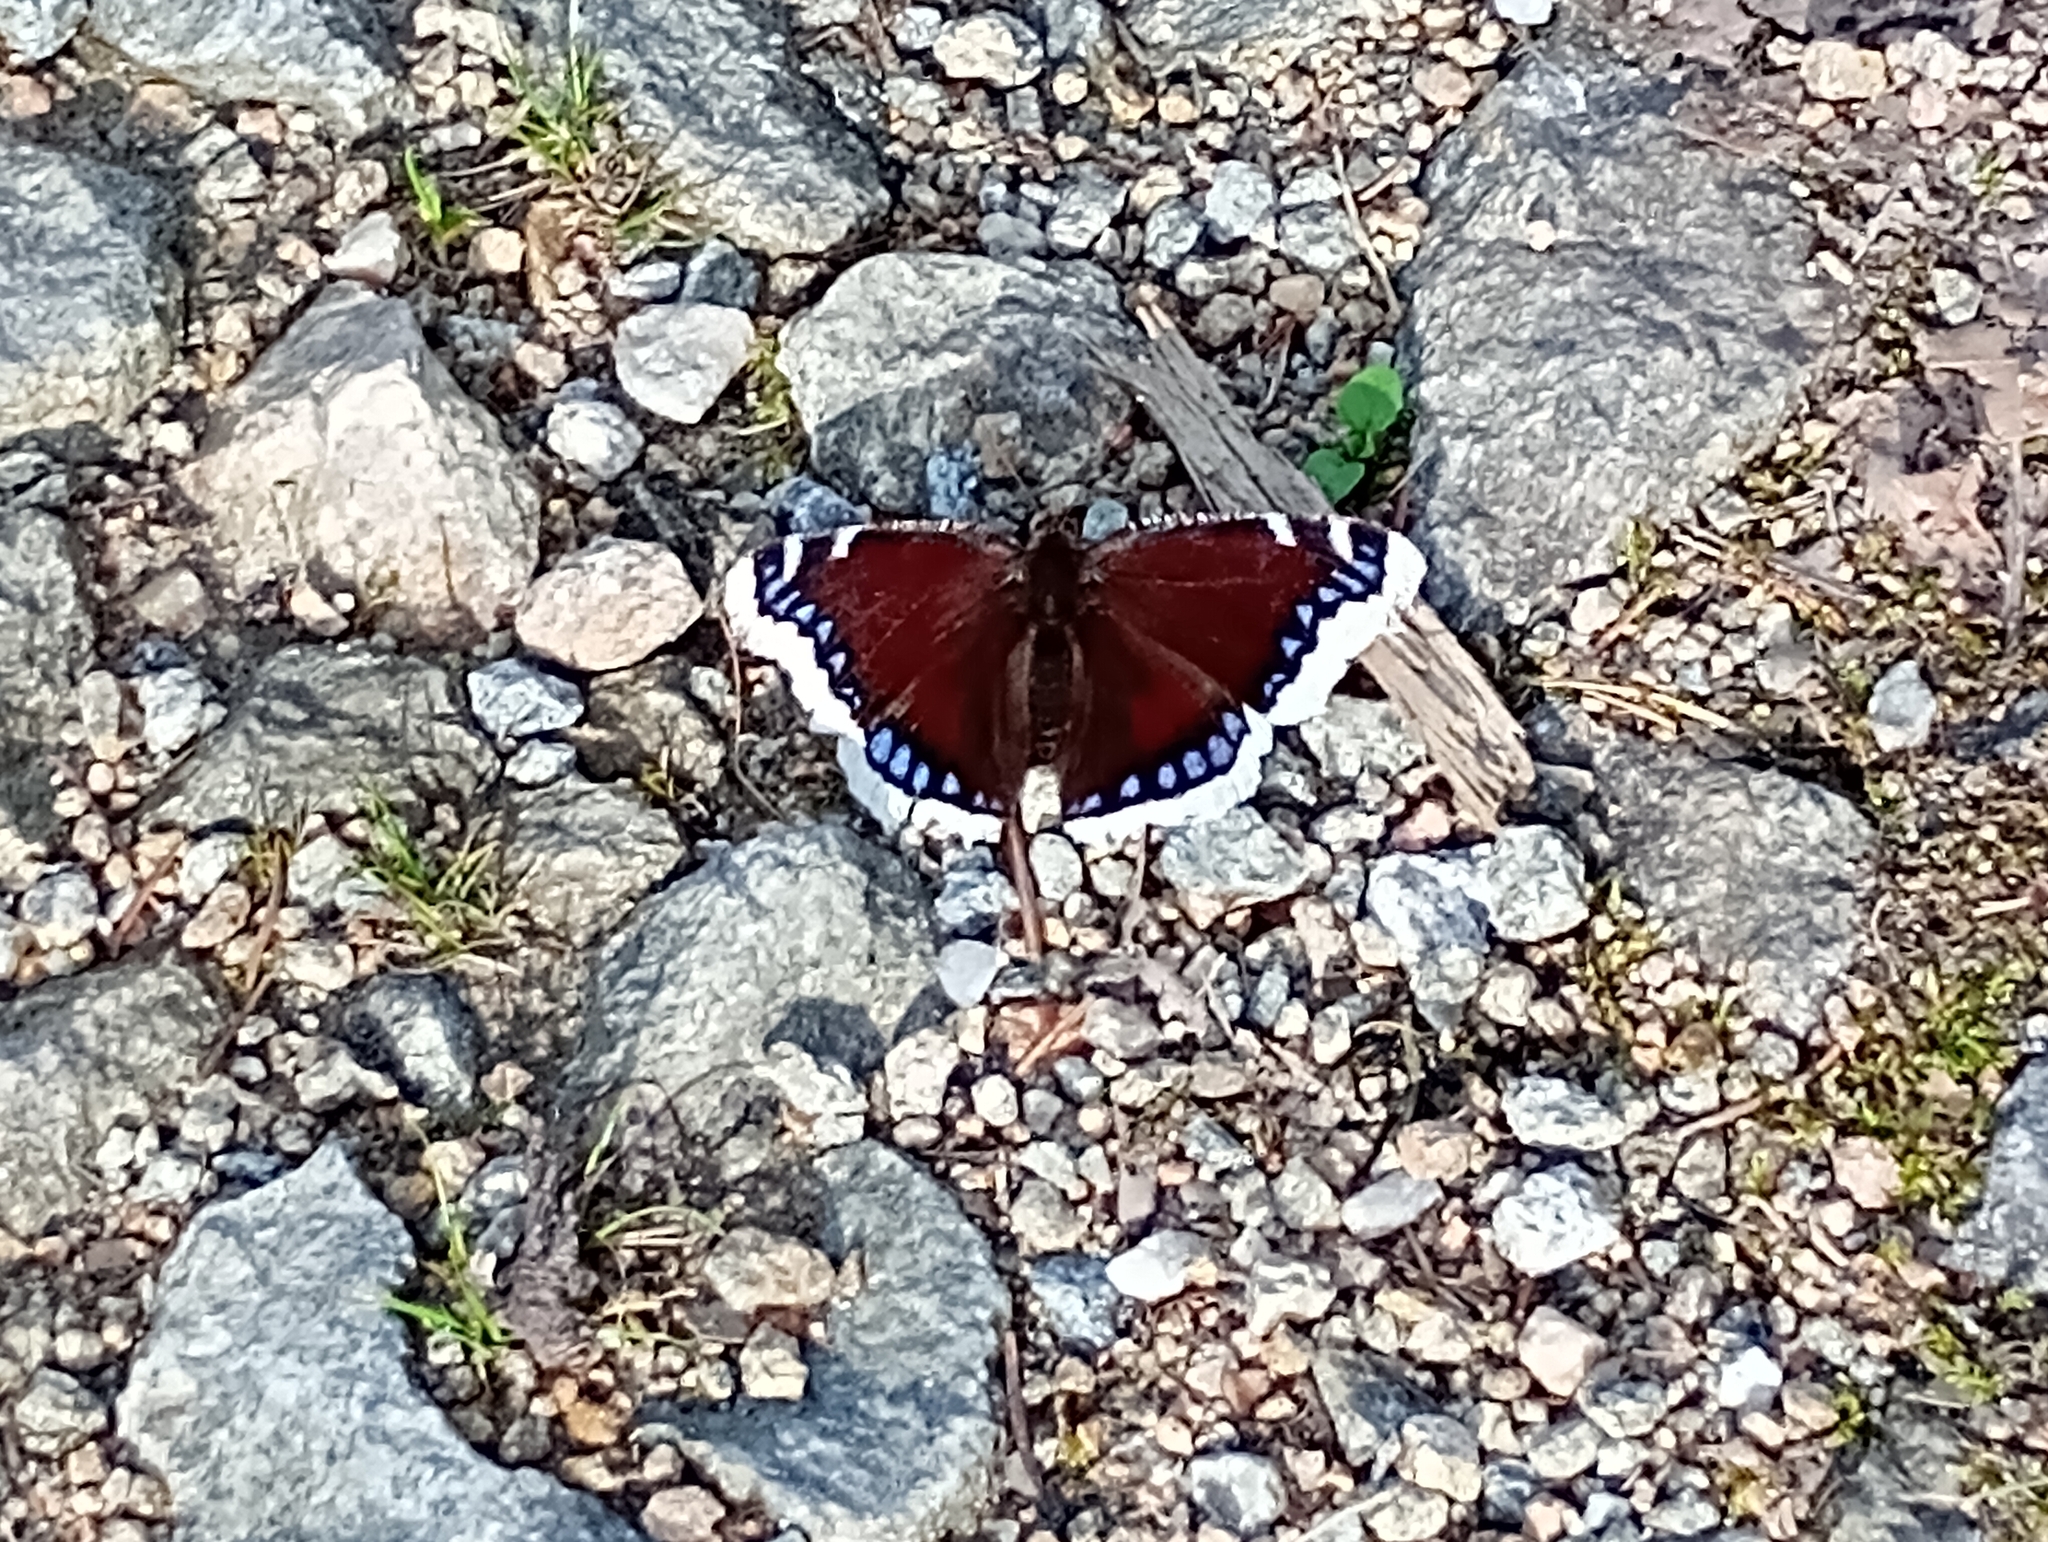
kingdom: Animalia
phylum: Arthropoda
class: Insecta
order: Lepidoptera
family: Nymphalidae
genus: Nymphalis
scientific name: Nymphalis antiopa
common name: Camberwell beauty
